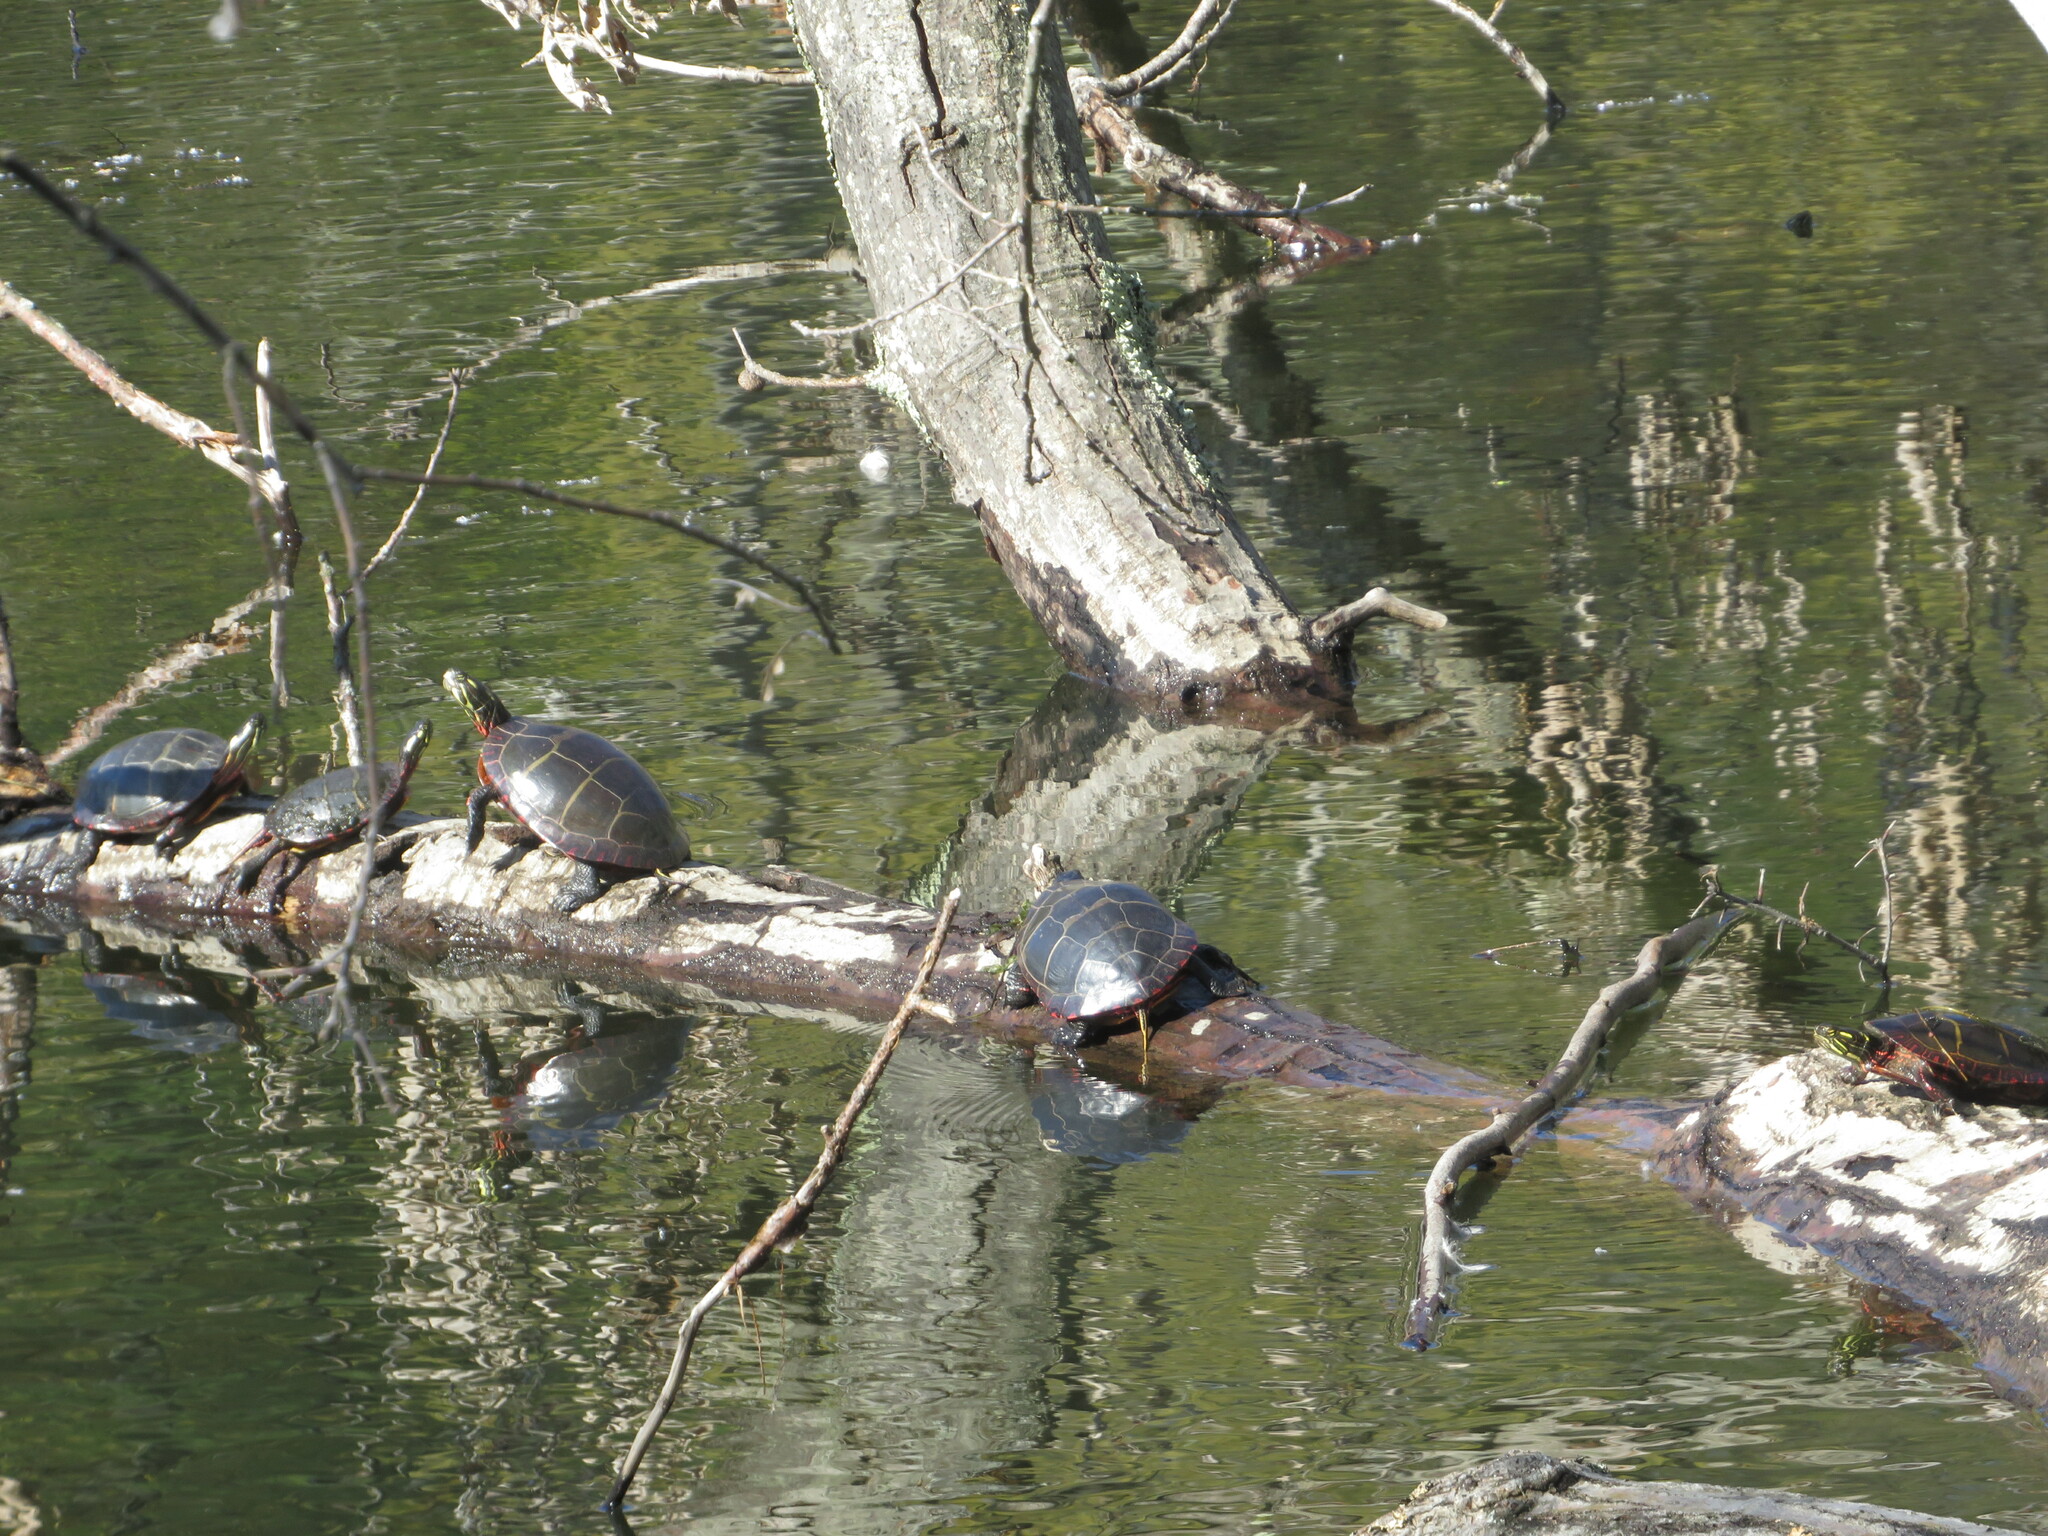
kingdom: Animalia
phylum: Chordata
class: Testudines
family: Emydidae
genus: Chrysemys
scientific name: Chrysemys picta
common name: Painted turtle
